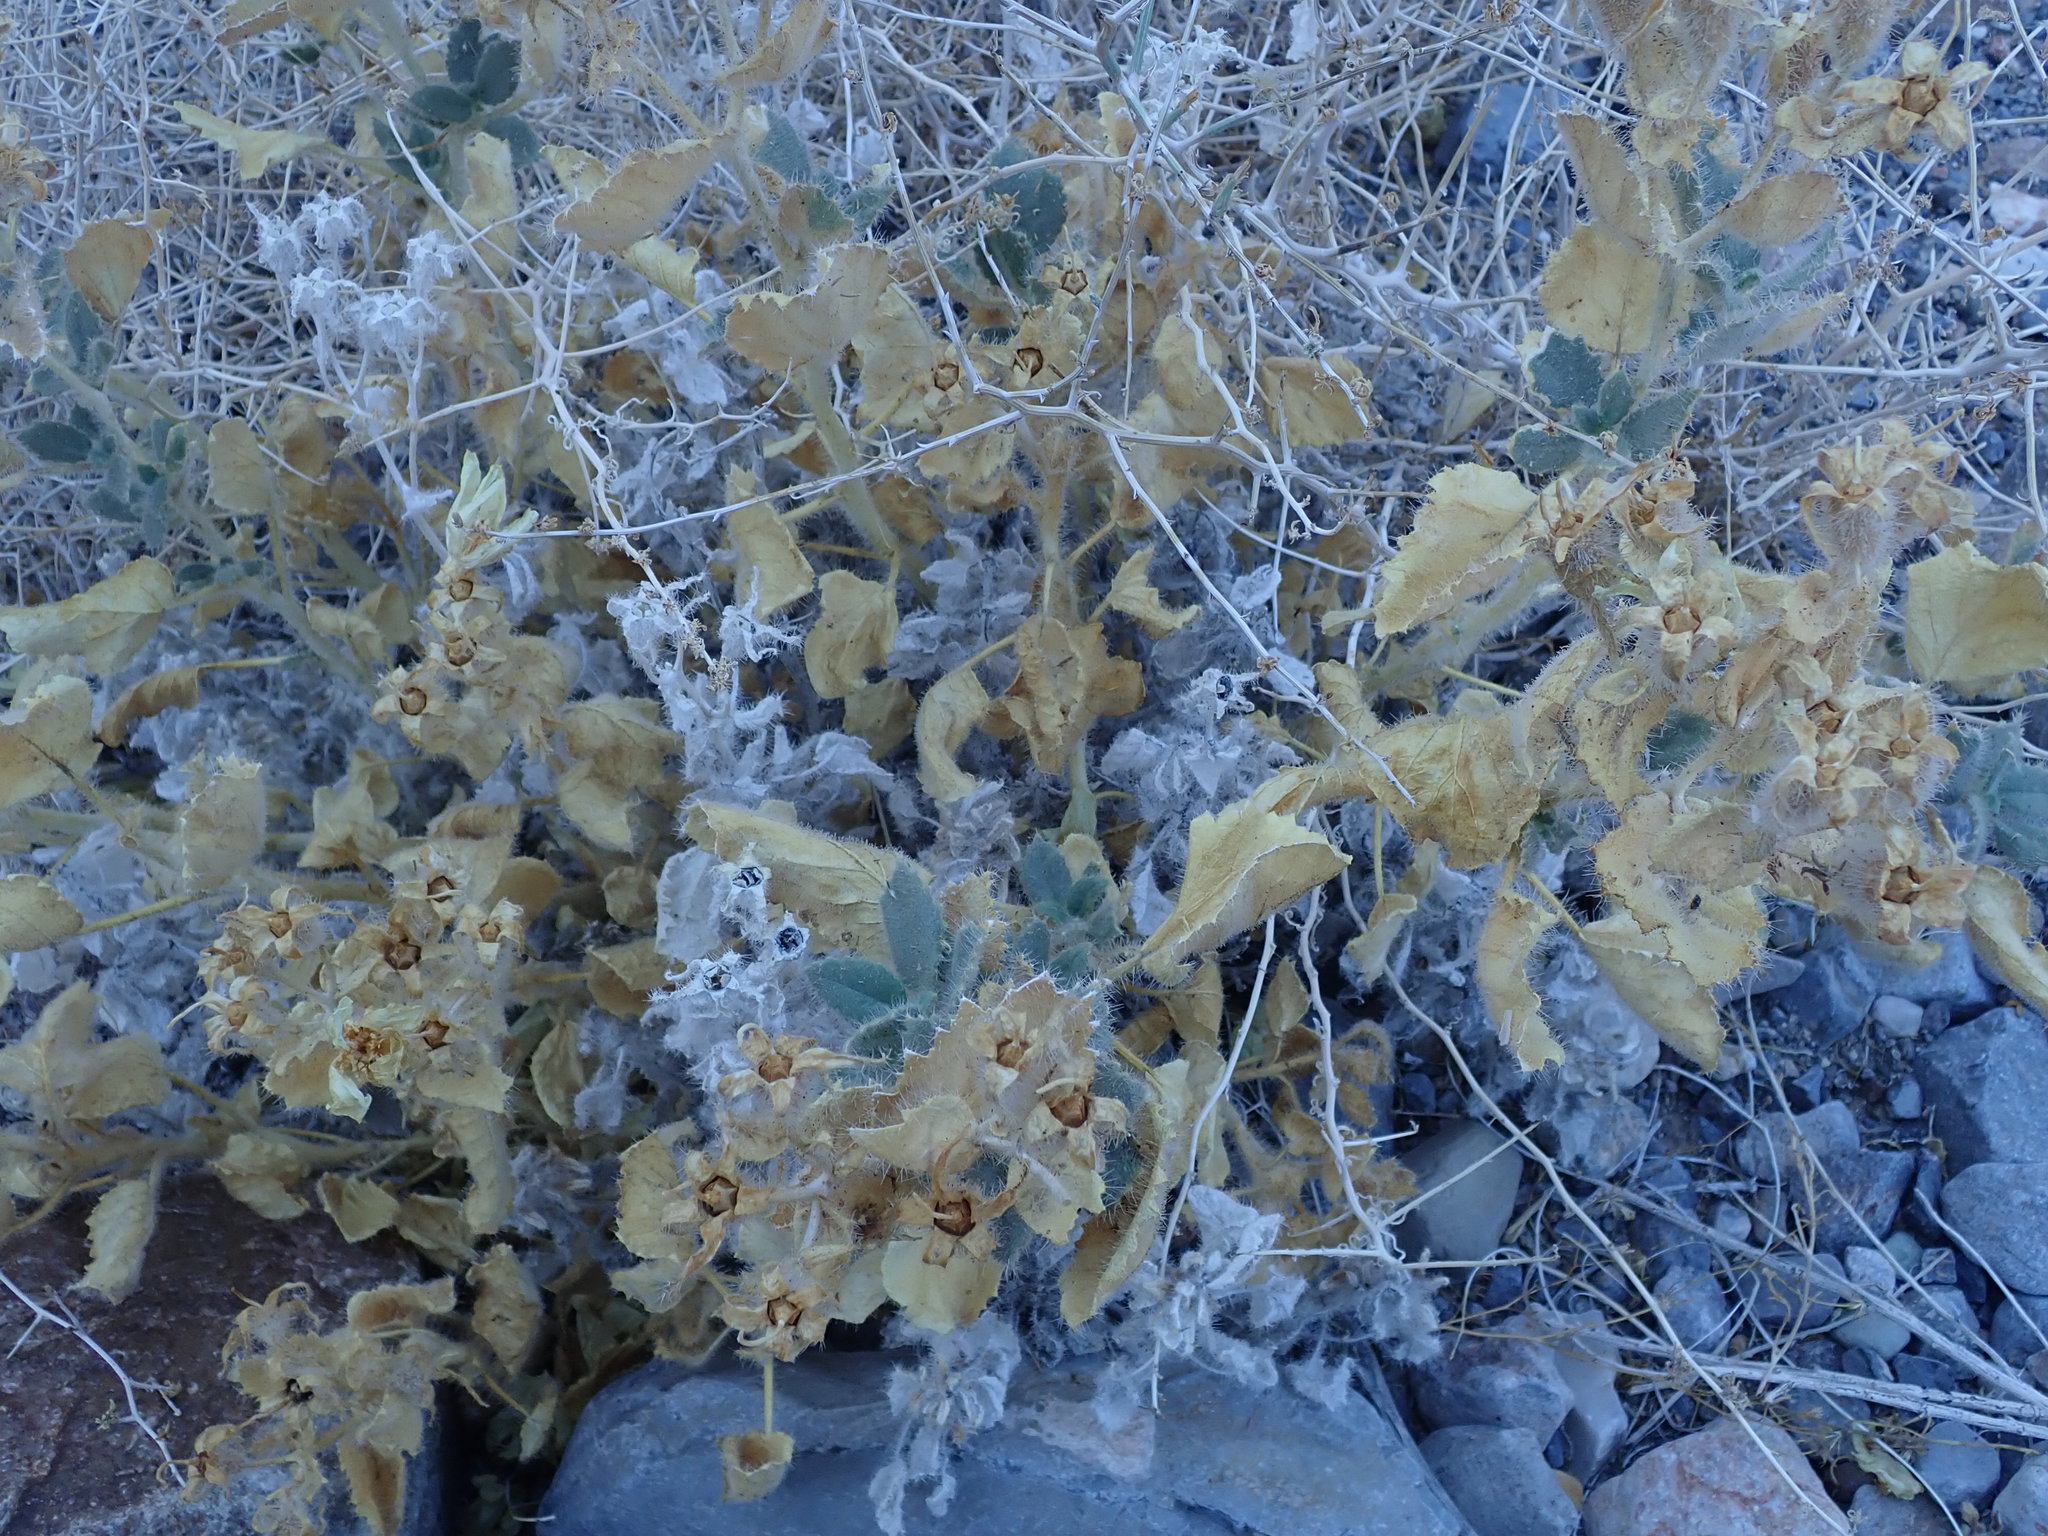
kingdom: Plantae
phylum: Tracheophyta
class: Magnoliopsida
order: Cornales
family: Loasaceae
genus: Eucnide
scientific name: Eucnide urens
